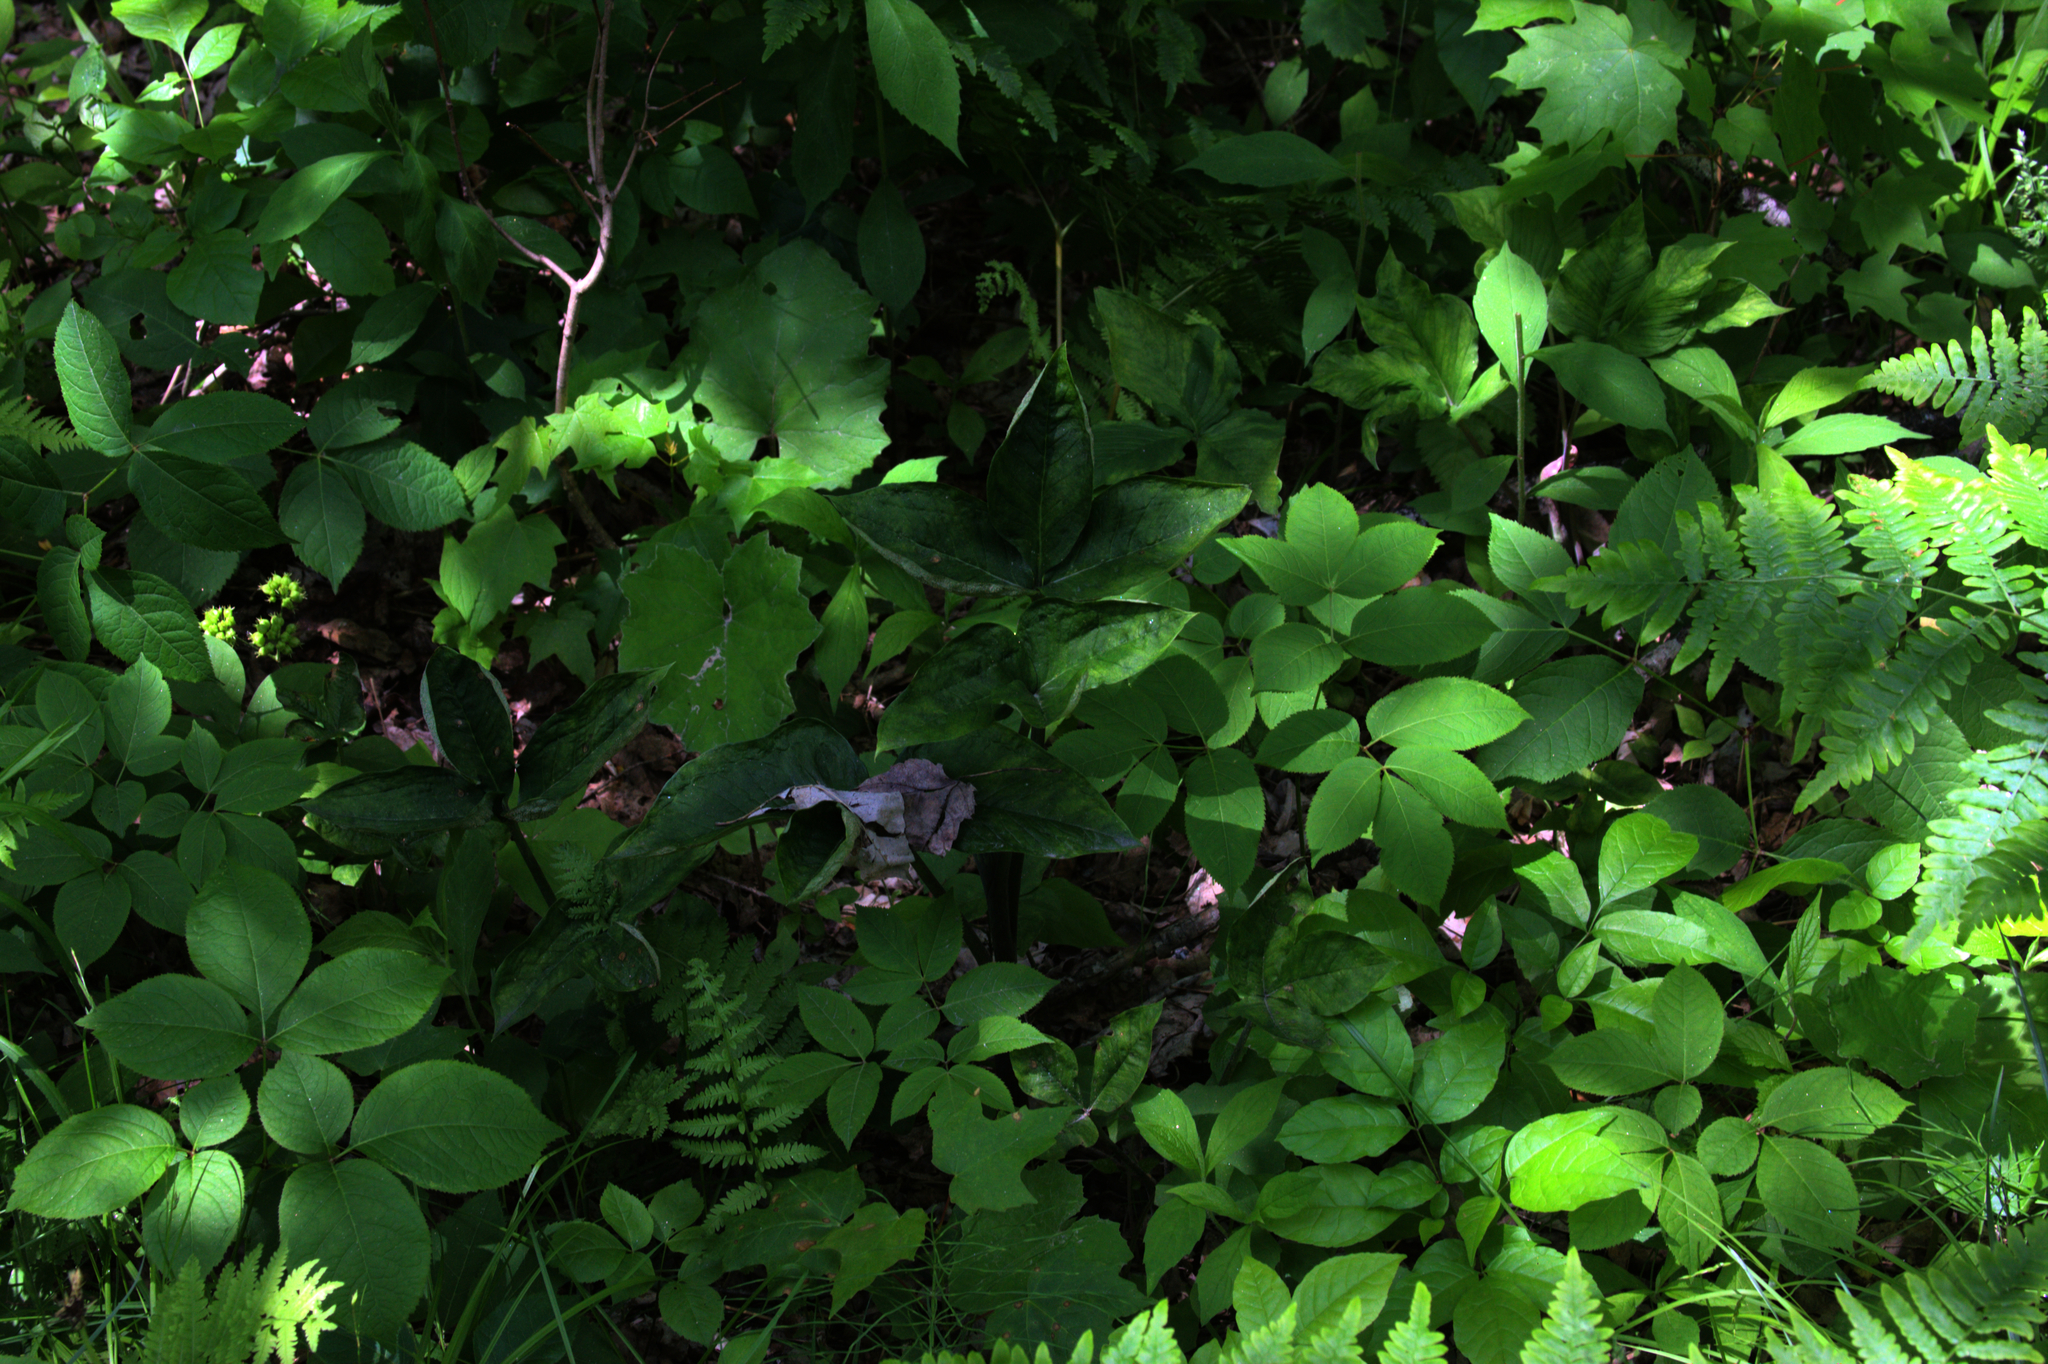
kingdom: Plantae
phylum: Tracheophyta
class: Liliopsida
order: Alismatales
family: Araceae
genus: Arisaema
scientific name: Arisaema triphyllum
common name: Jack-in-the-pulpit
